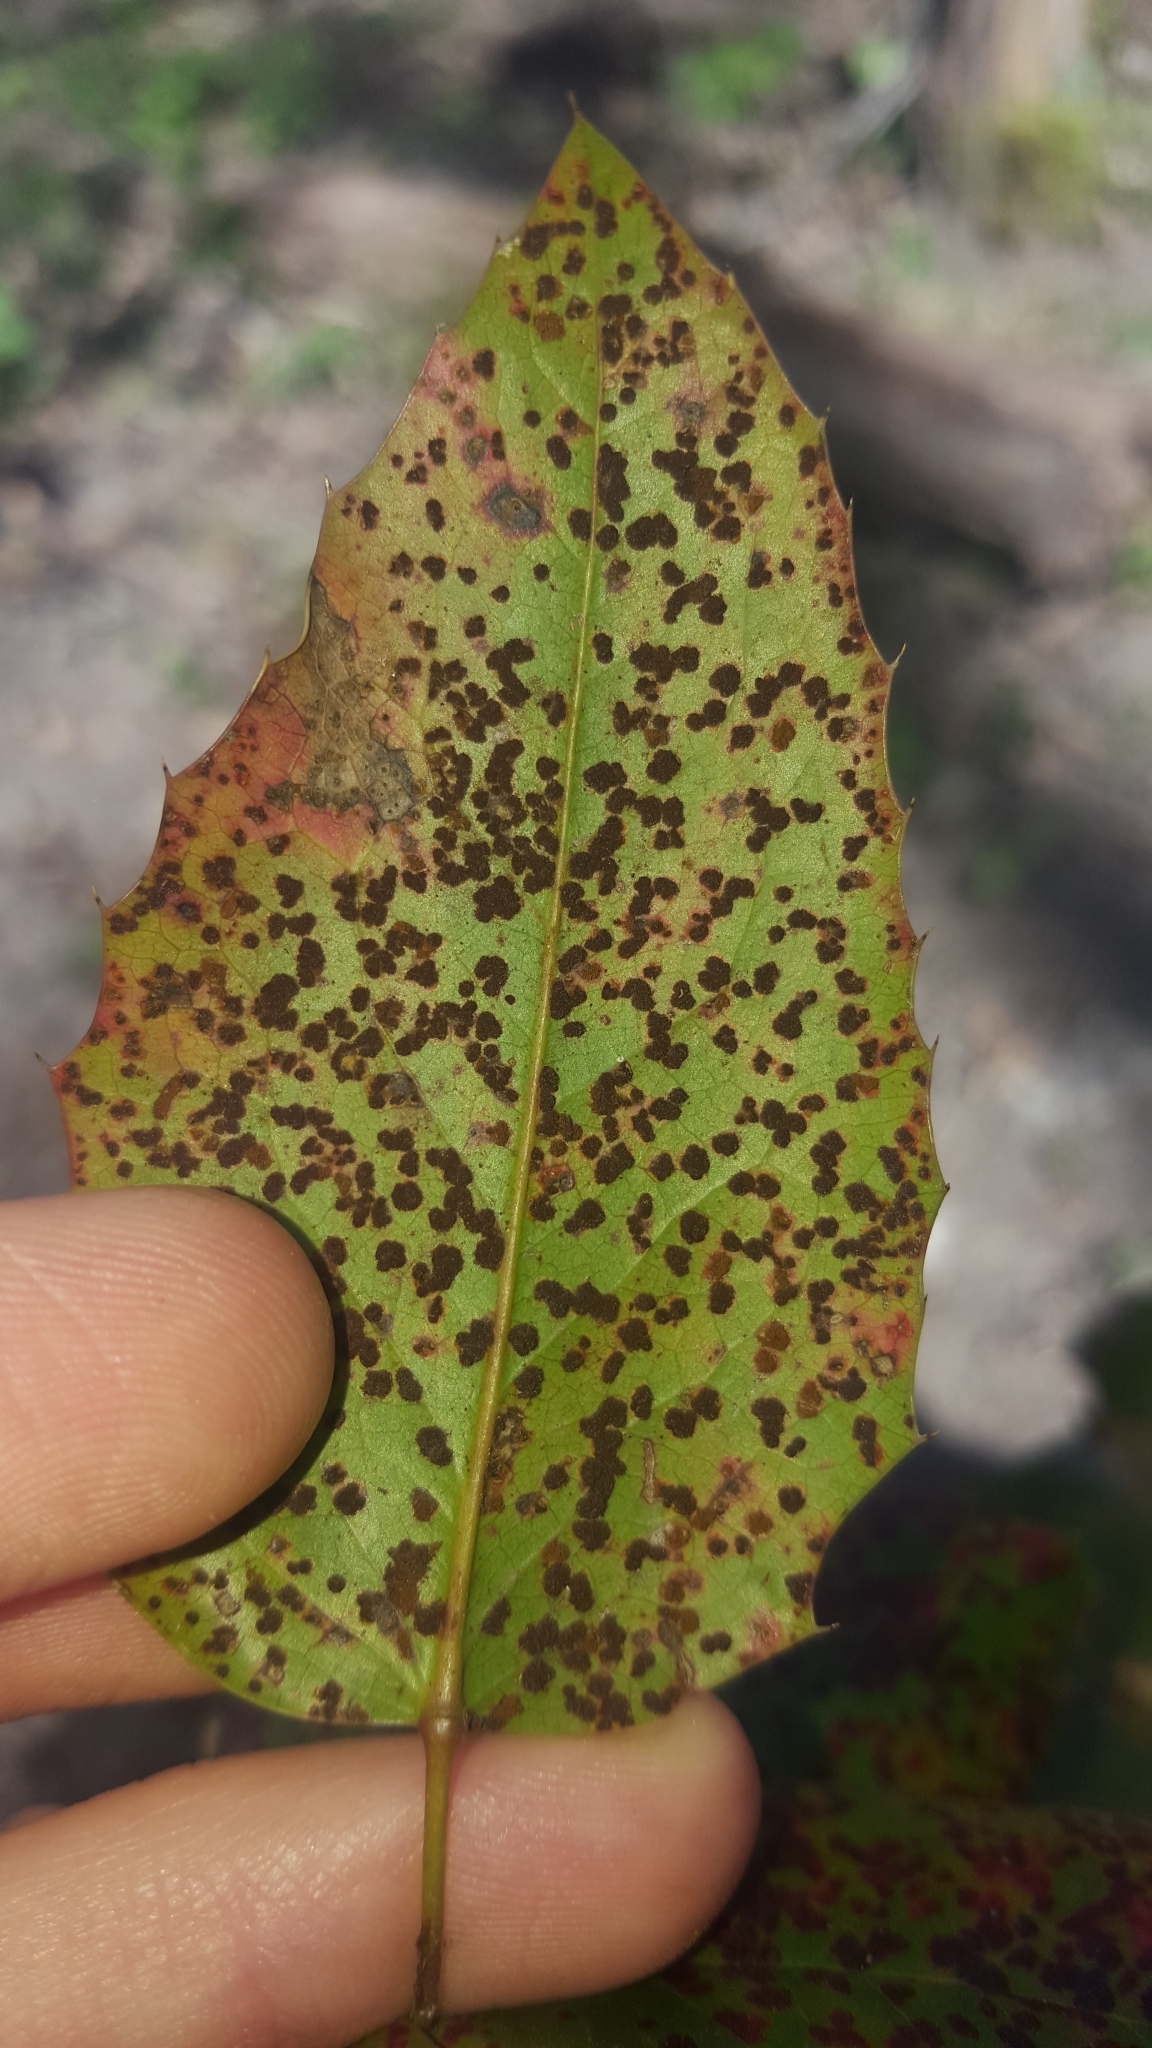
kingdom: Fungi
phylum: Basidiomycota
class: Pucciniomycetes
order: Pucciniales
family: Pucciniaceae
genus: Cumminsiella
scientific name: Cumminsiella mirabilissima
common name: Mahonia rust
